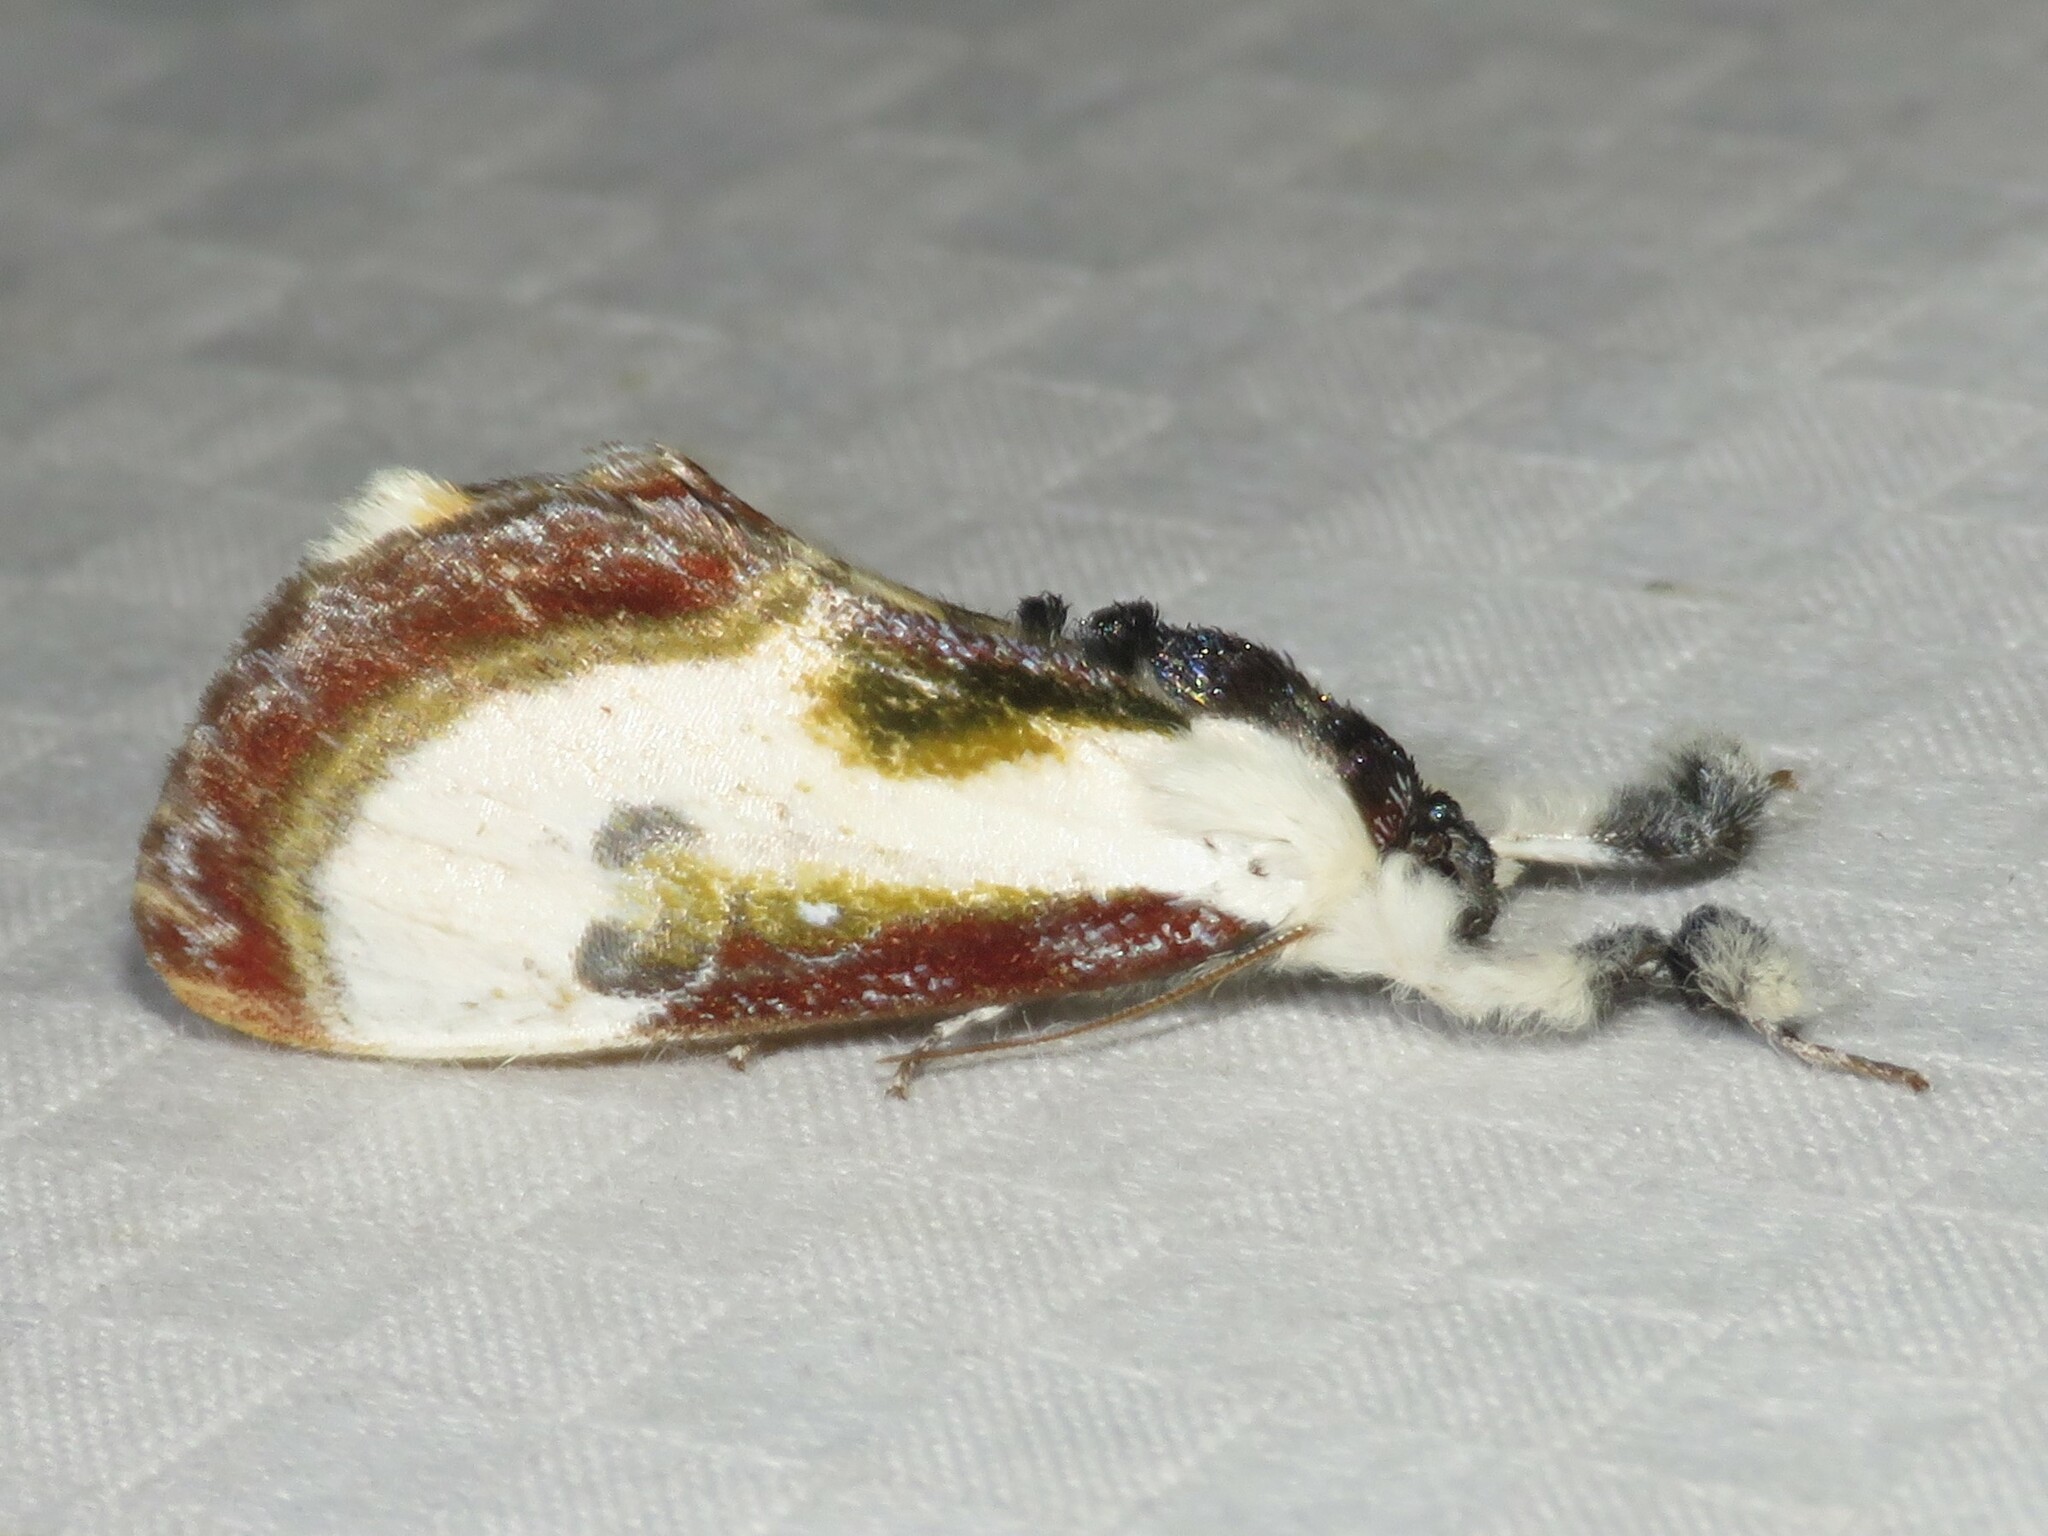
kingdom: Animalia
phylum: Arthropoda
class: Insecta
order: Lepidoptera
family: Noctuidae
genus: Eudryas
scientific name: Eudryas grata
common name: Beautiful wood-nymph
